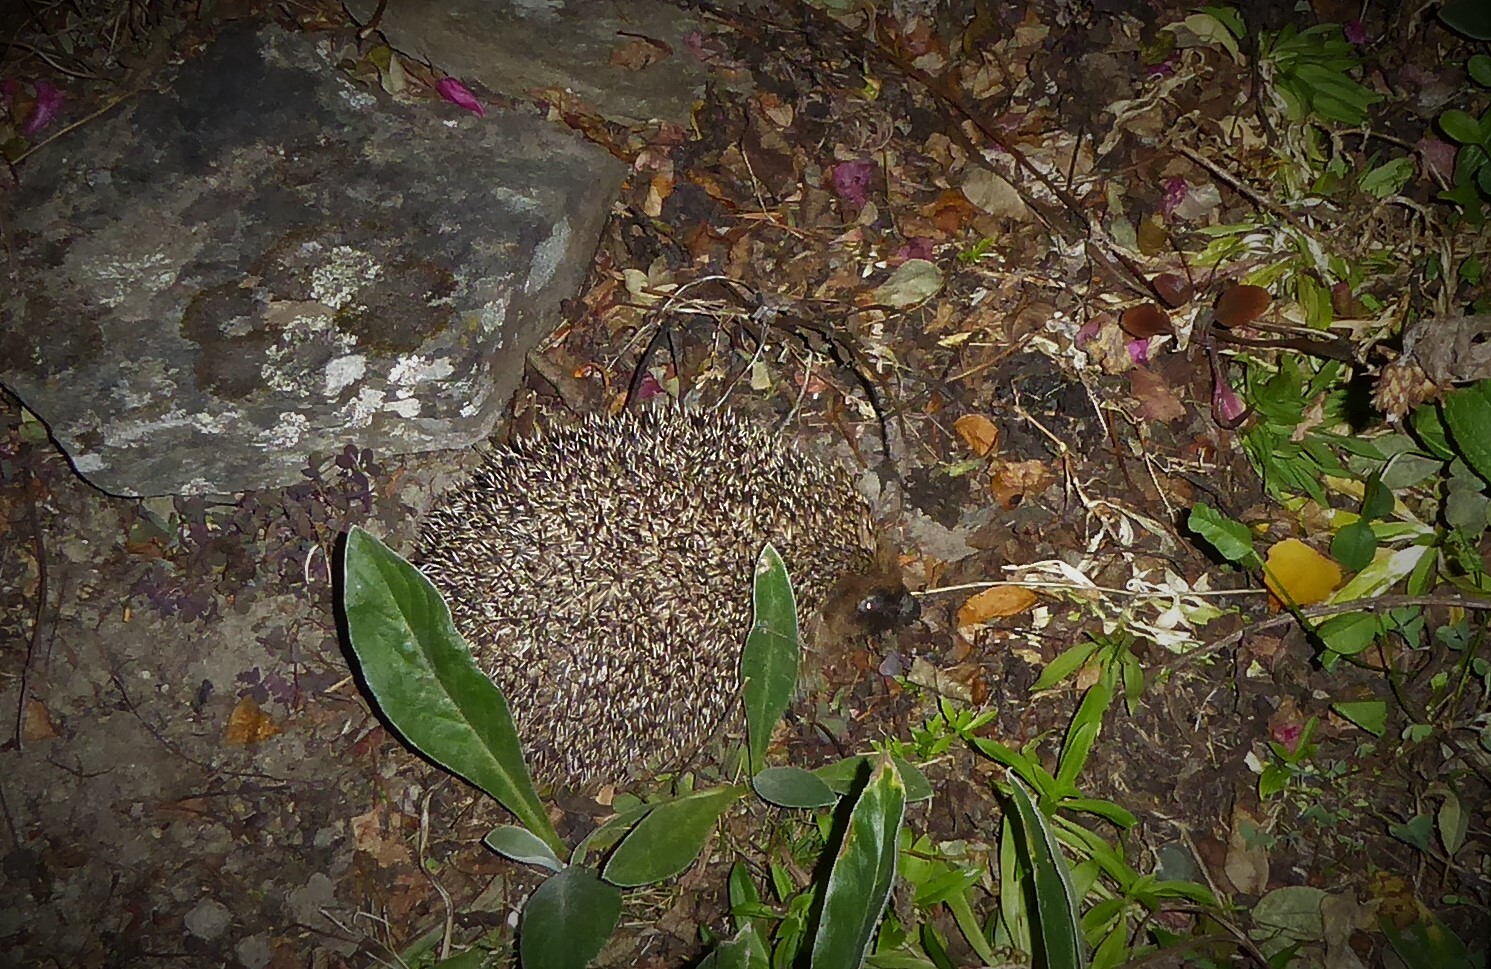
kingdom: Animalia
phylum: Chordata
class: Mammalia
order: Erinaceomorpha
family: Erinaceidae
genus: Erinaceus
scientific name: Erinaceus europaeus
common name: West european hedgehog
